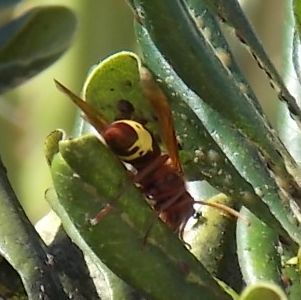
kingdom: Animalia
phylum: Arthropoda
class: Insecta
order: Hymenoptera
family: Vespidae
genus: Vespa
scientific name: Vespa orientalis
